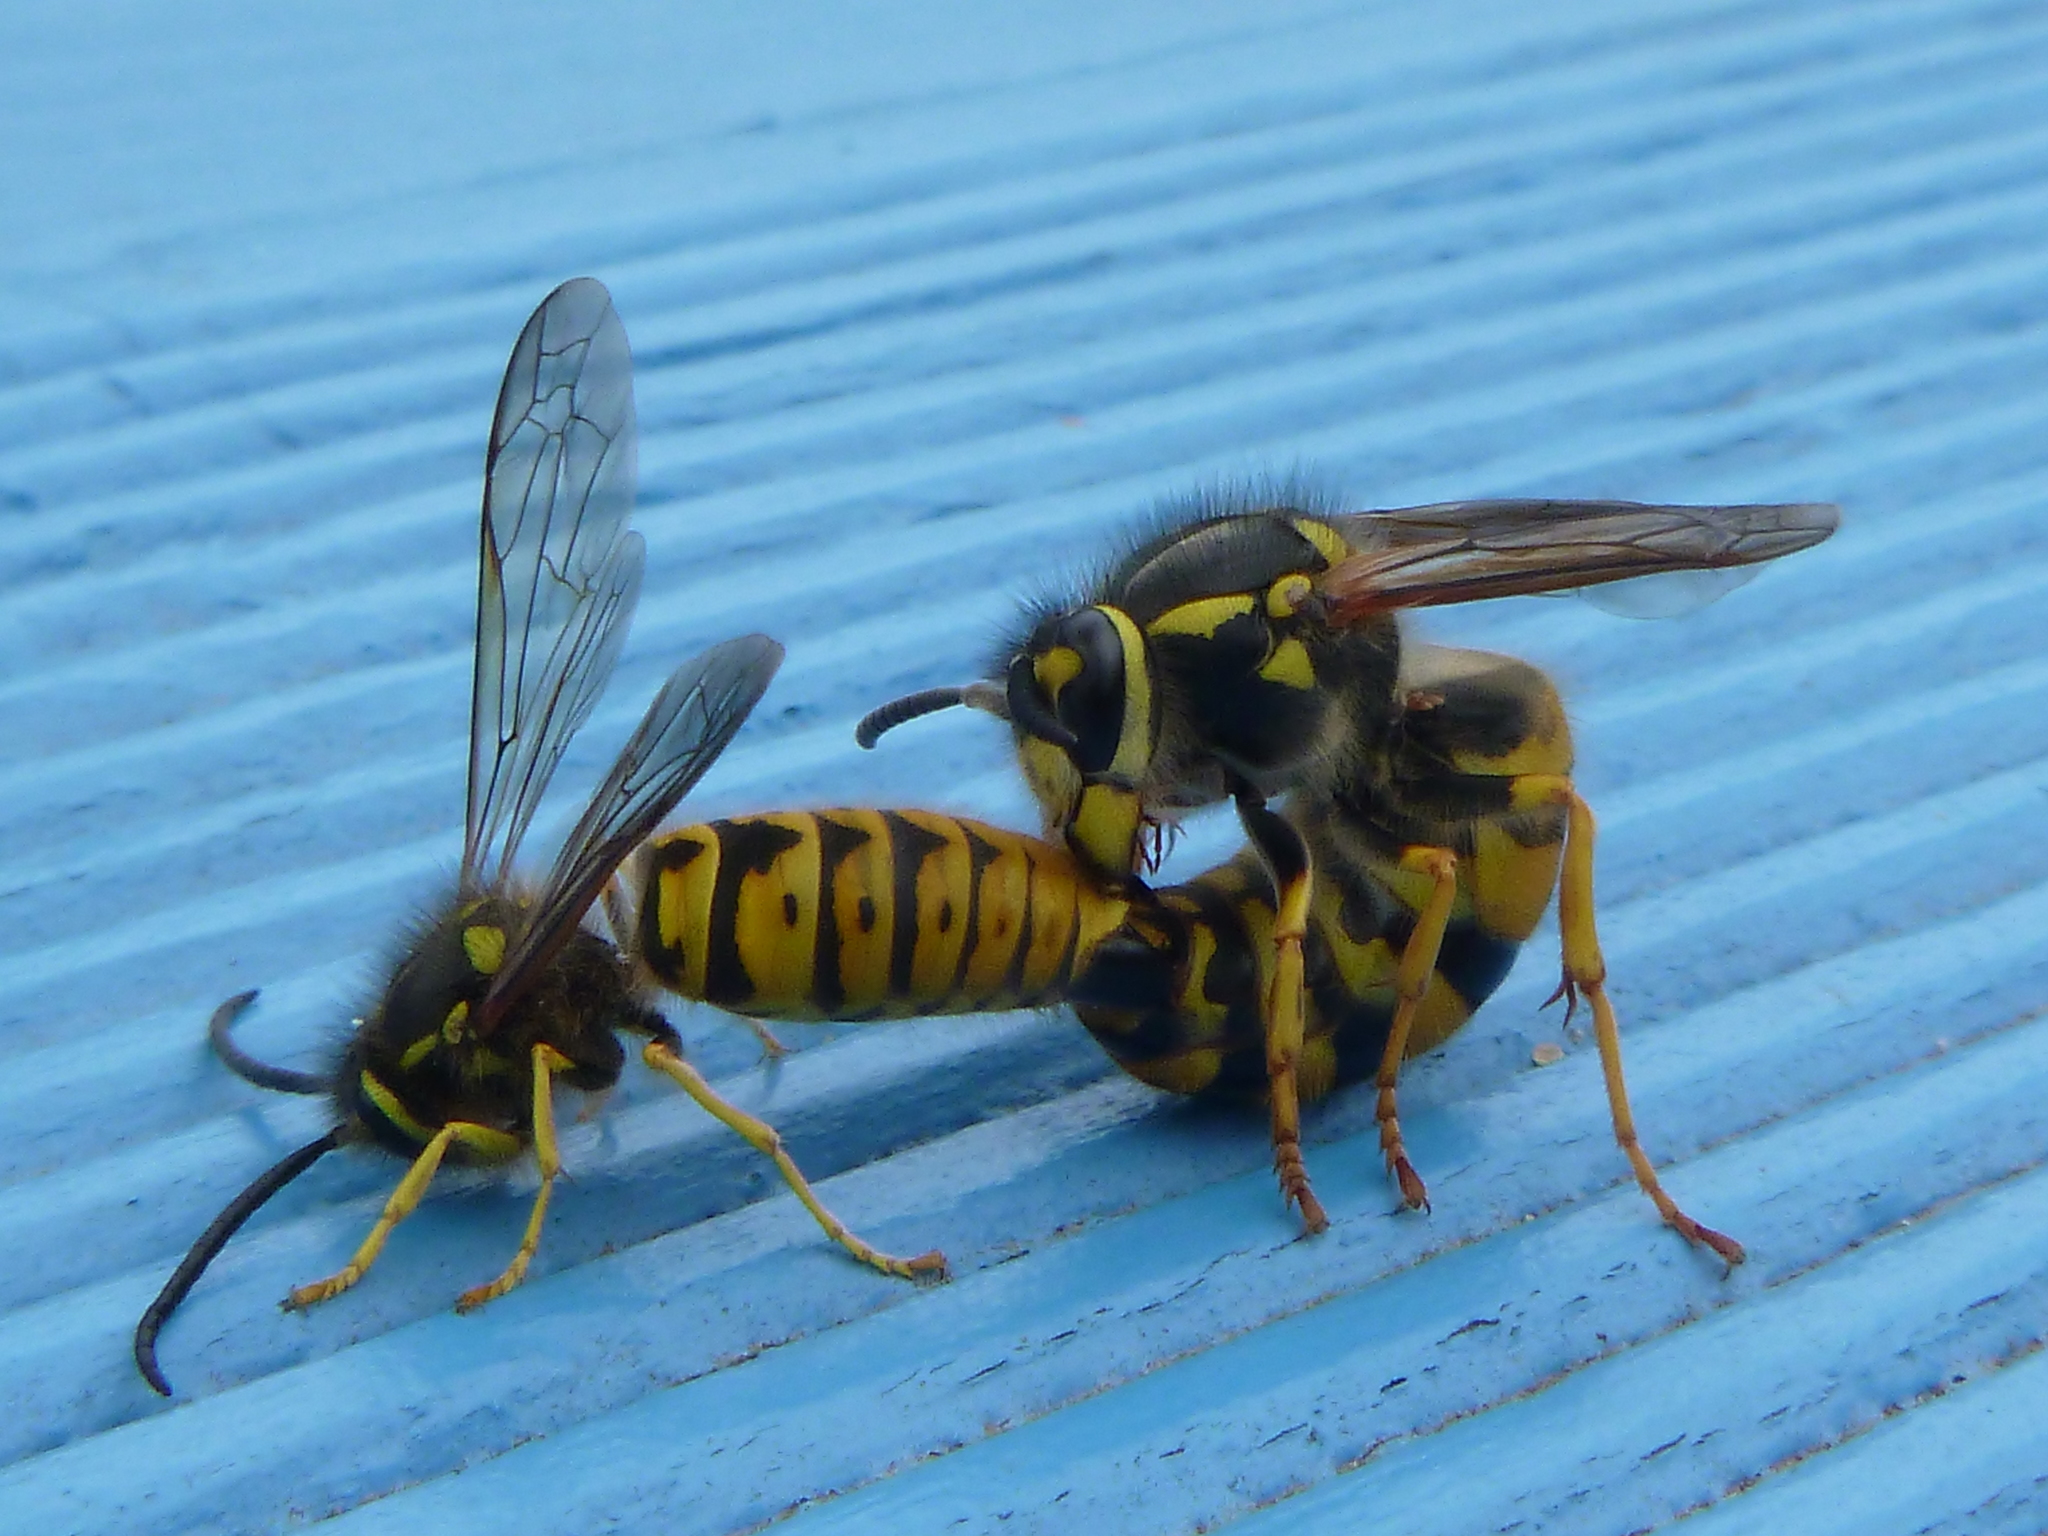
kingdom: Animalia
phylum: Arthropoda
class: Insecta
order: Hymenoptera
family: Vespidae
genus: Vespula
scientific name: Vespula germanica
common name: German wasp
